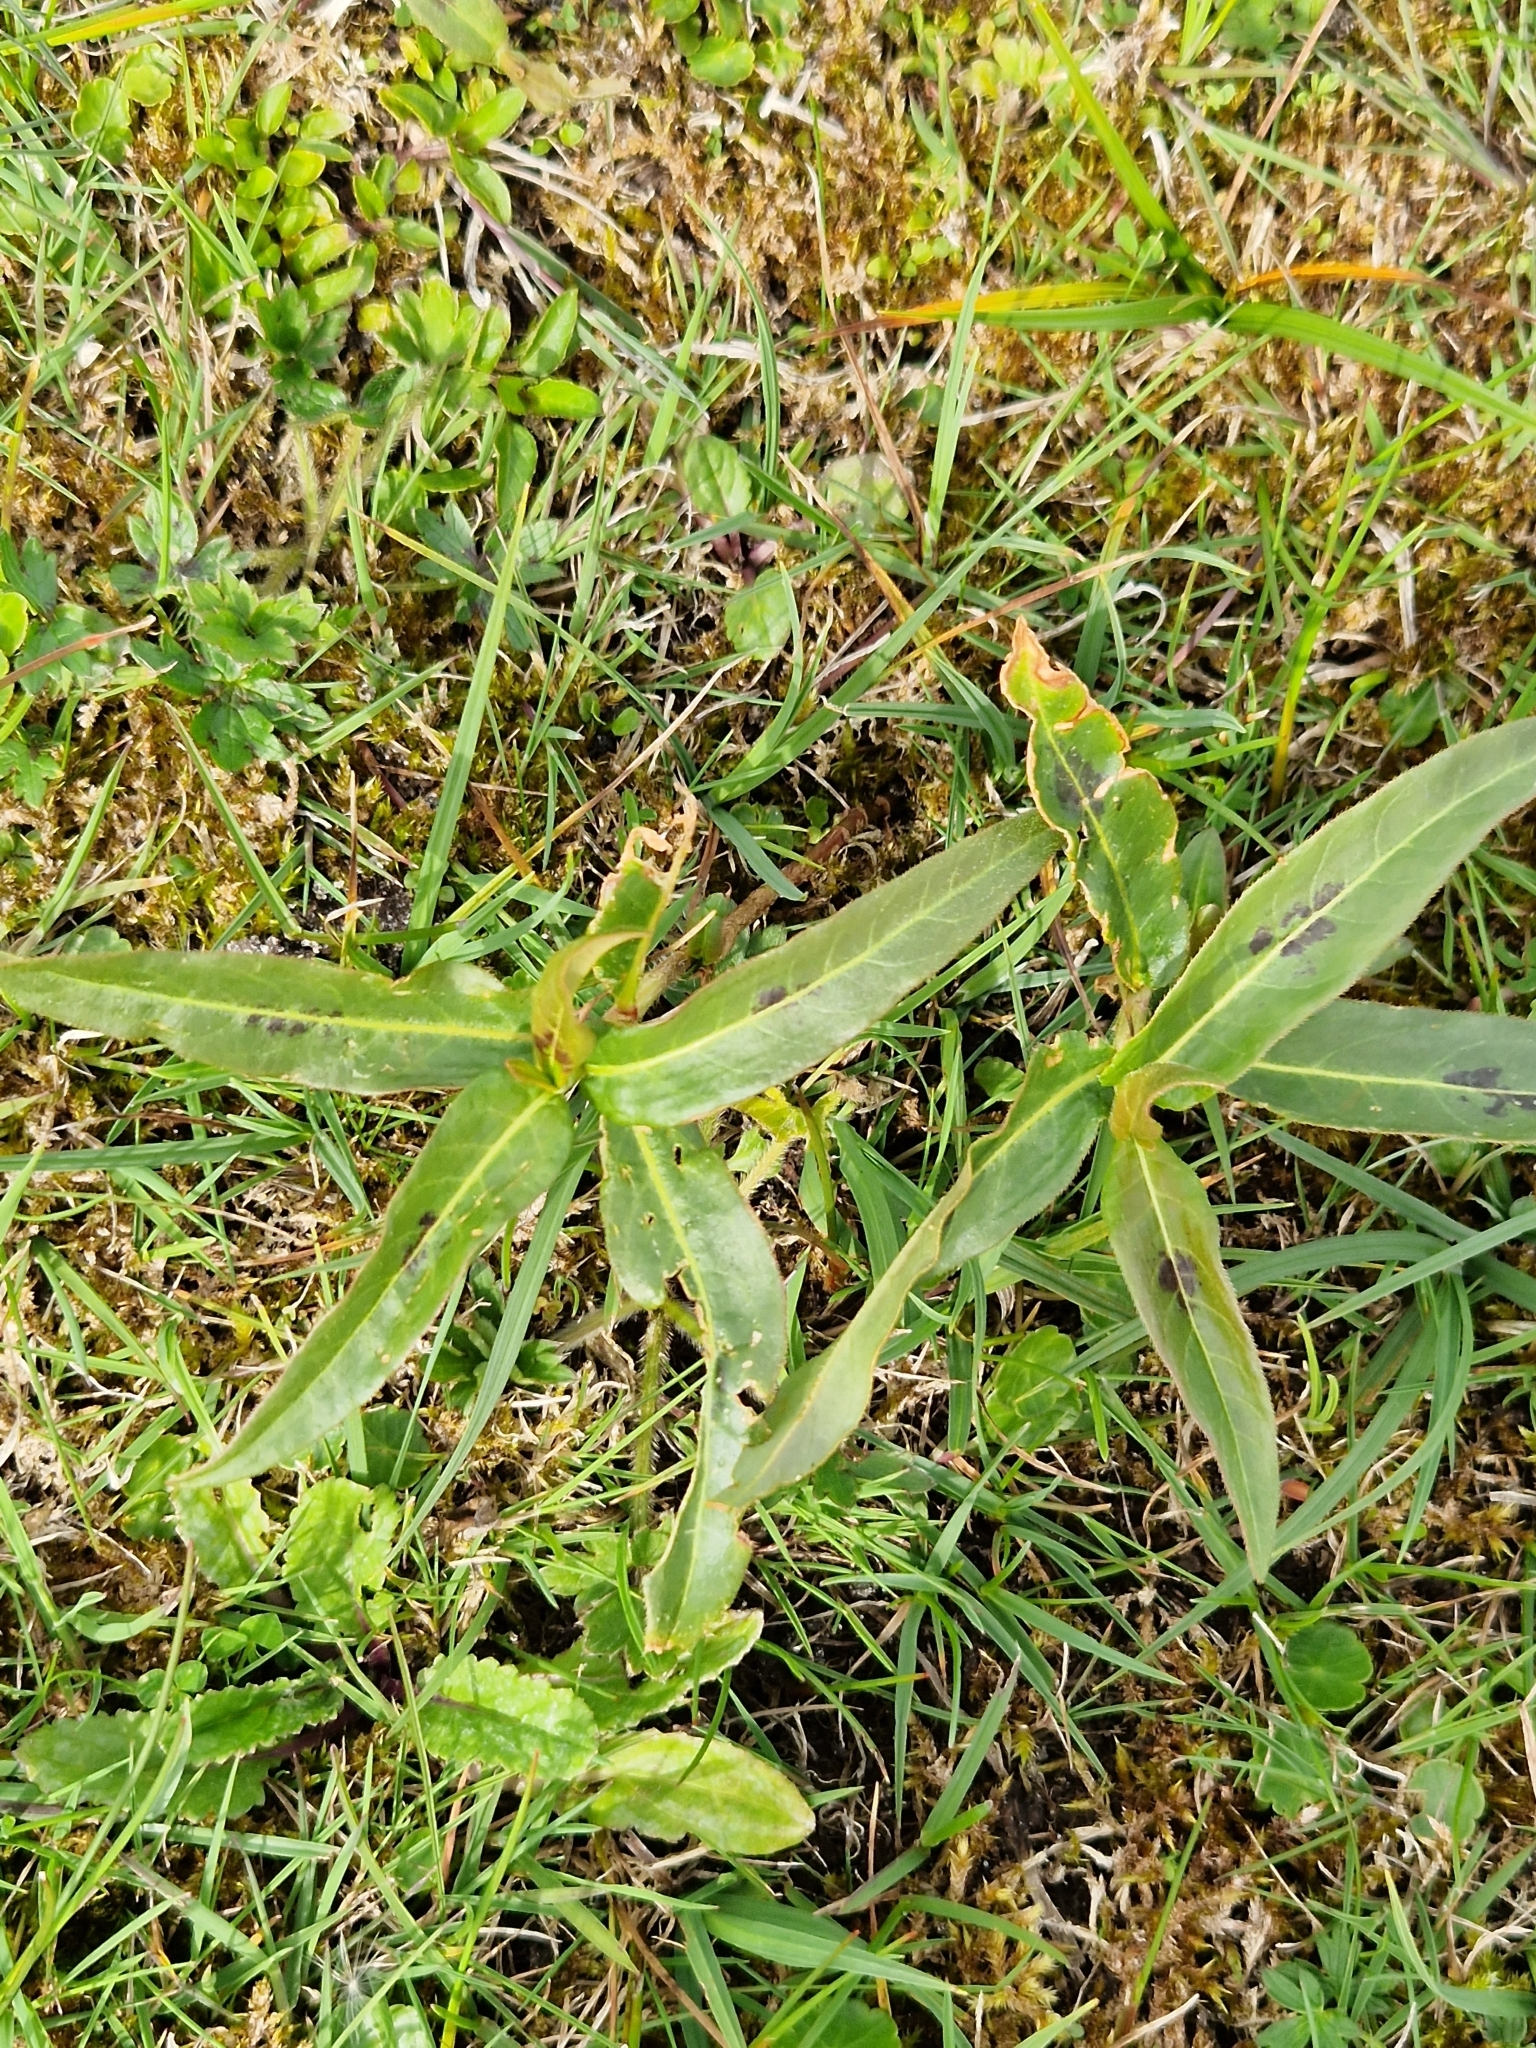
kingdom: Plantae
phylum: Tracheophyta
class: Magnoliopsida
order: Caryophyllales
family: Polygonaceae
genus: Persicaria
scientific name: Persicaria amphibia
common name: Amphibious bistort
